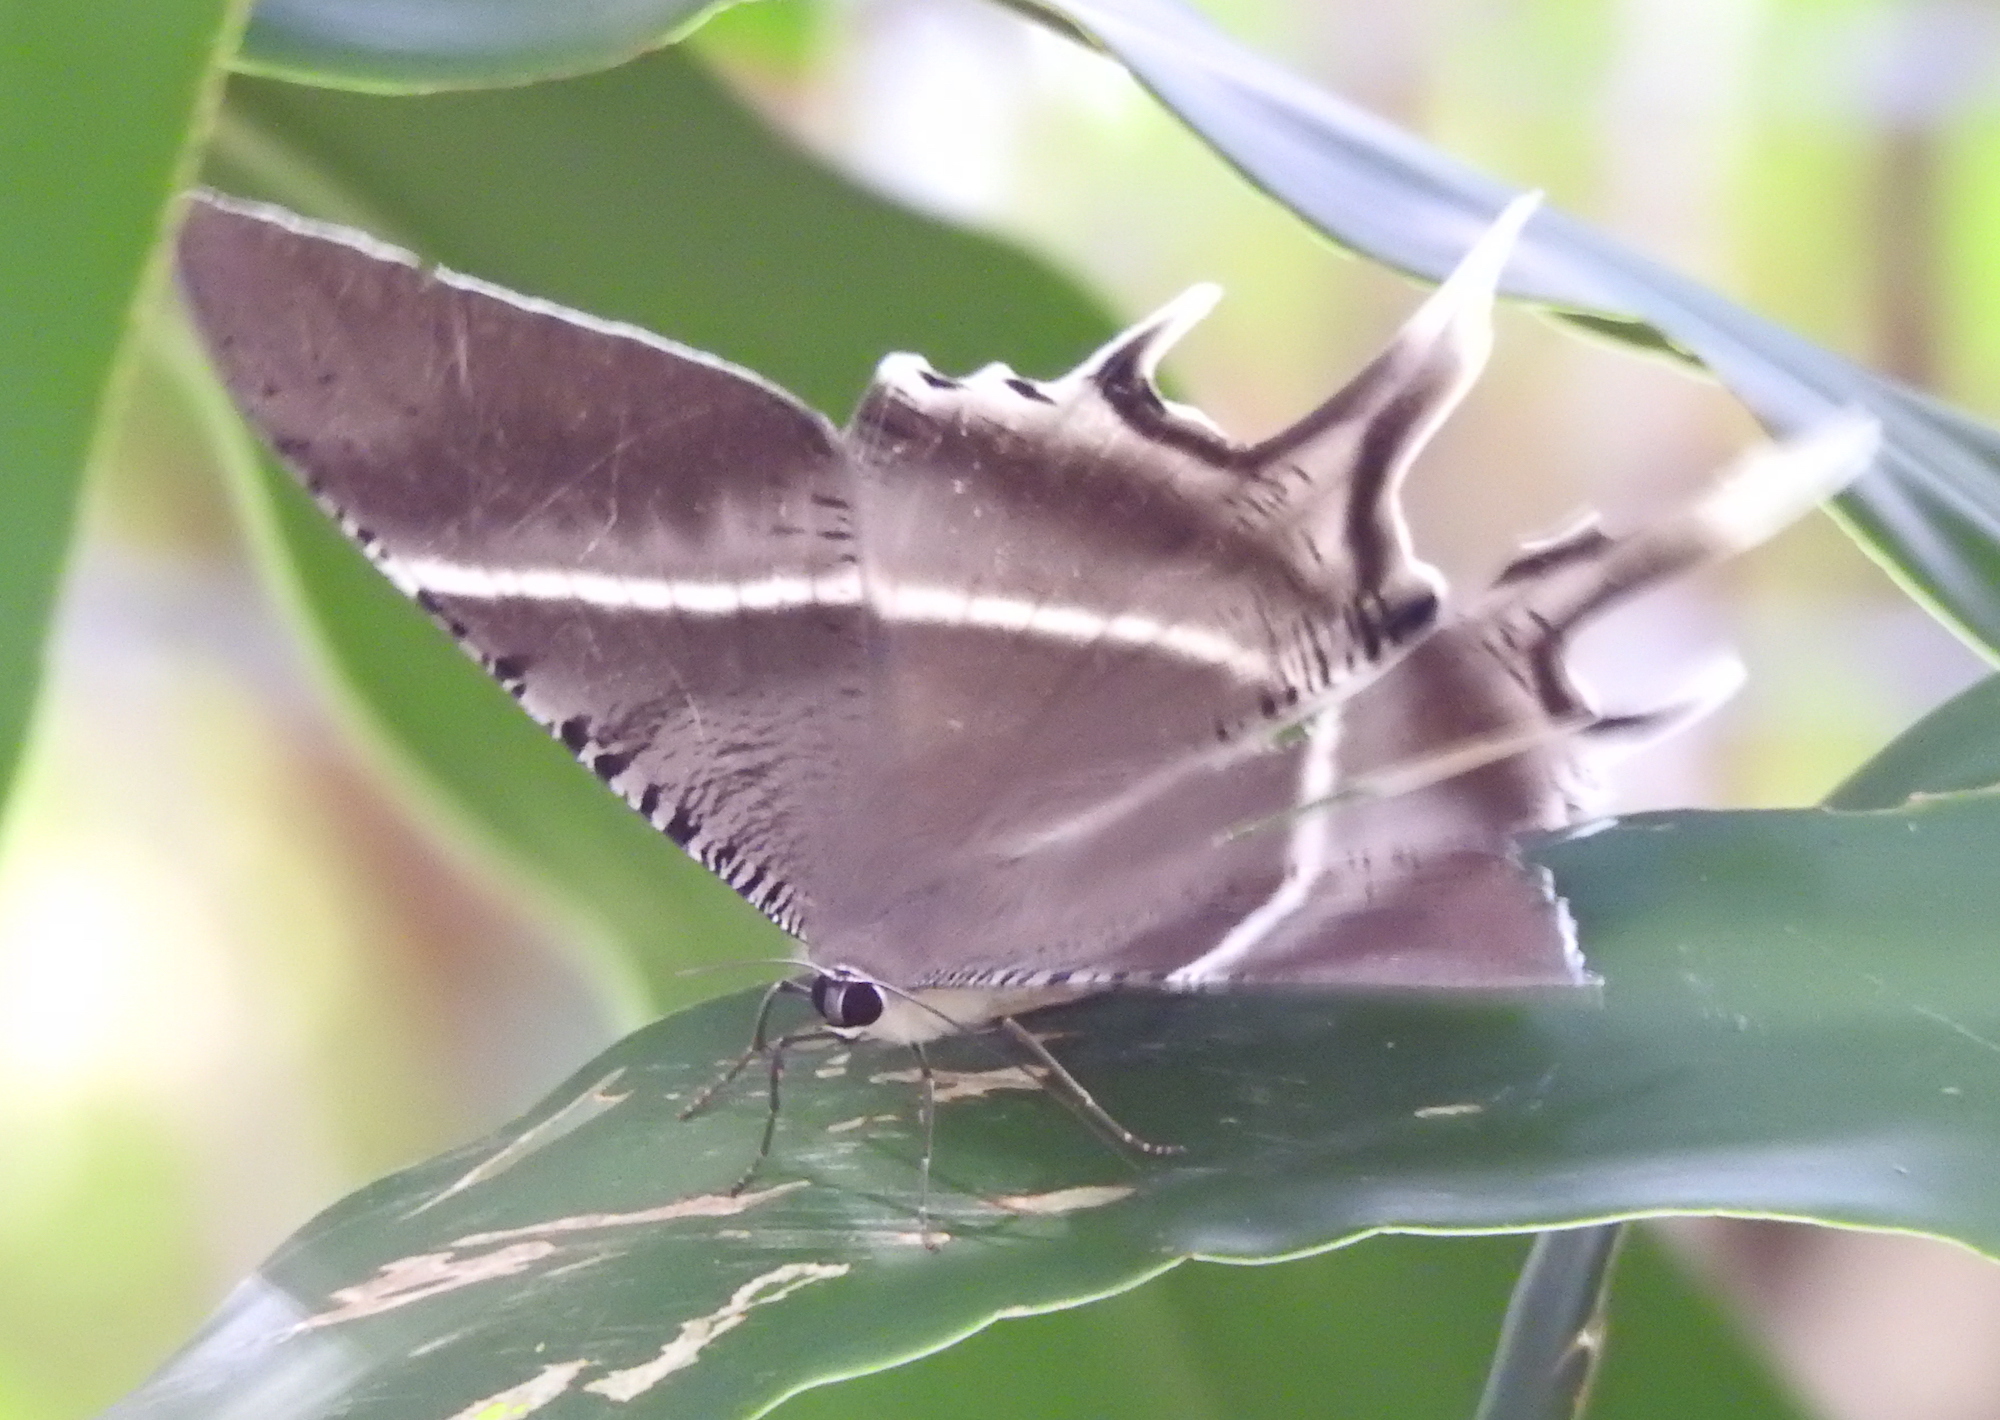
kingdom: Animalia
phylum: Arthropoda
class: Insecta
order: Lepidoptera
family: Uraniidae
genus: Lyssa
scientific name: Lyssa zampa
